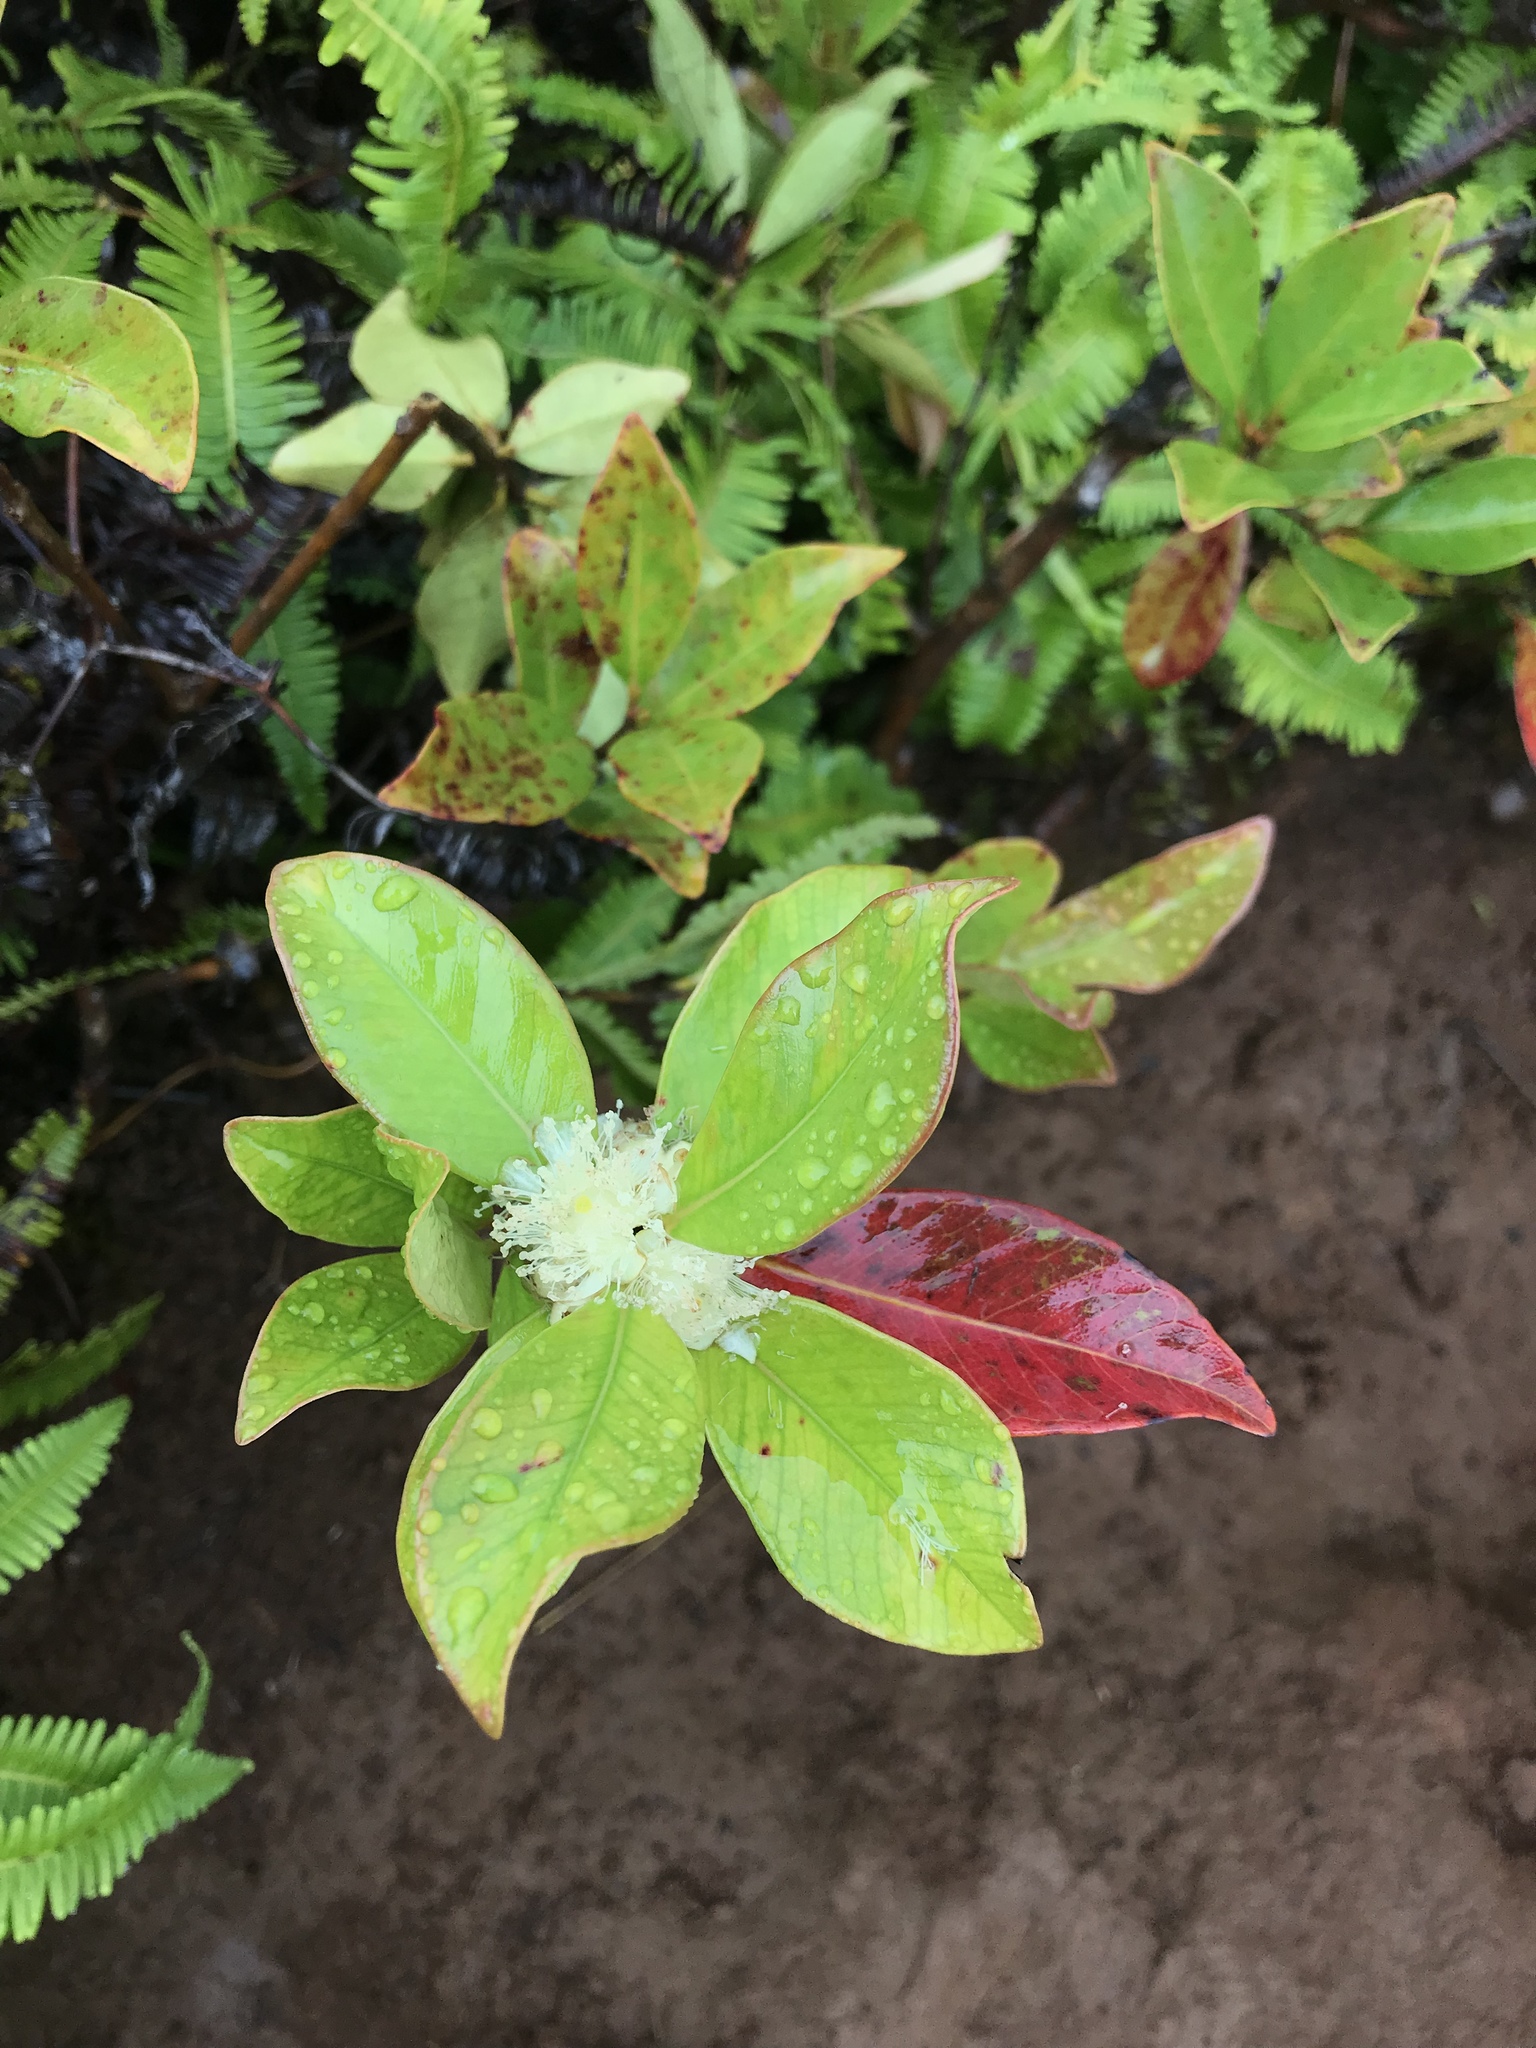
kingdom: Plantae
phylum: Tracheophyta
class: Magnoliopsida
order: Myrtales
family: Myrtaceae
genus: Psidium
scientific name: Psidium cattleianum
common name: Strawberry guava
